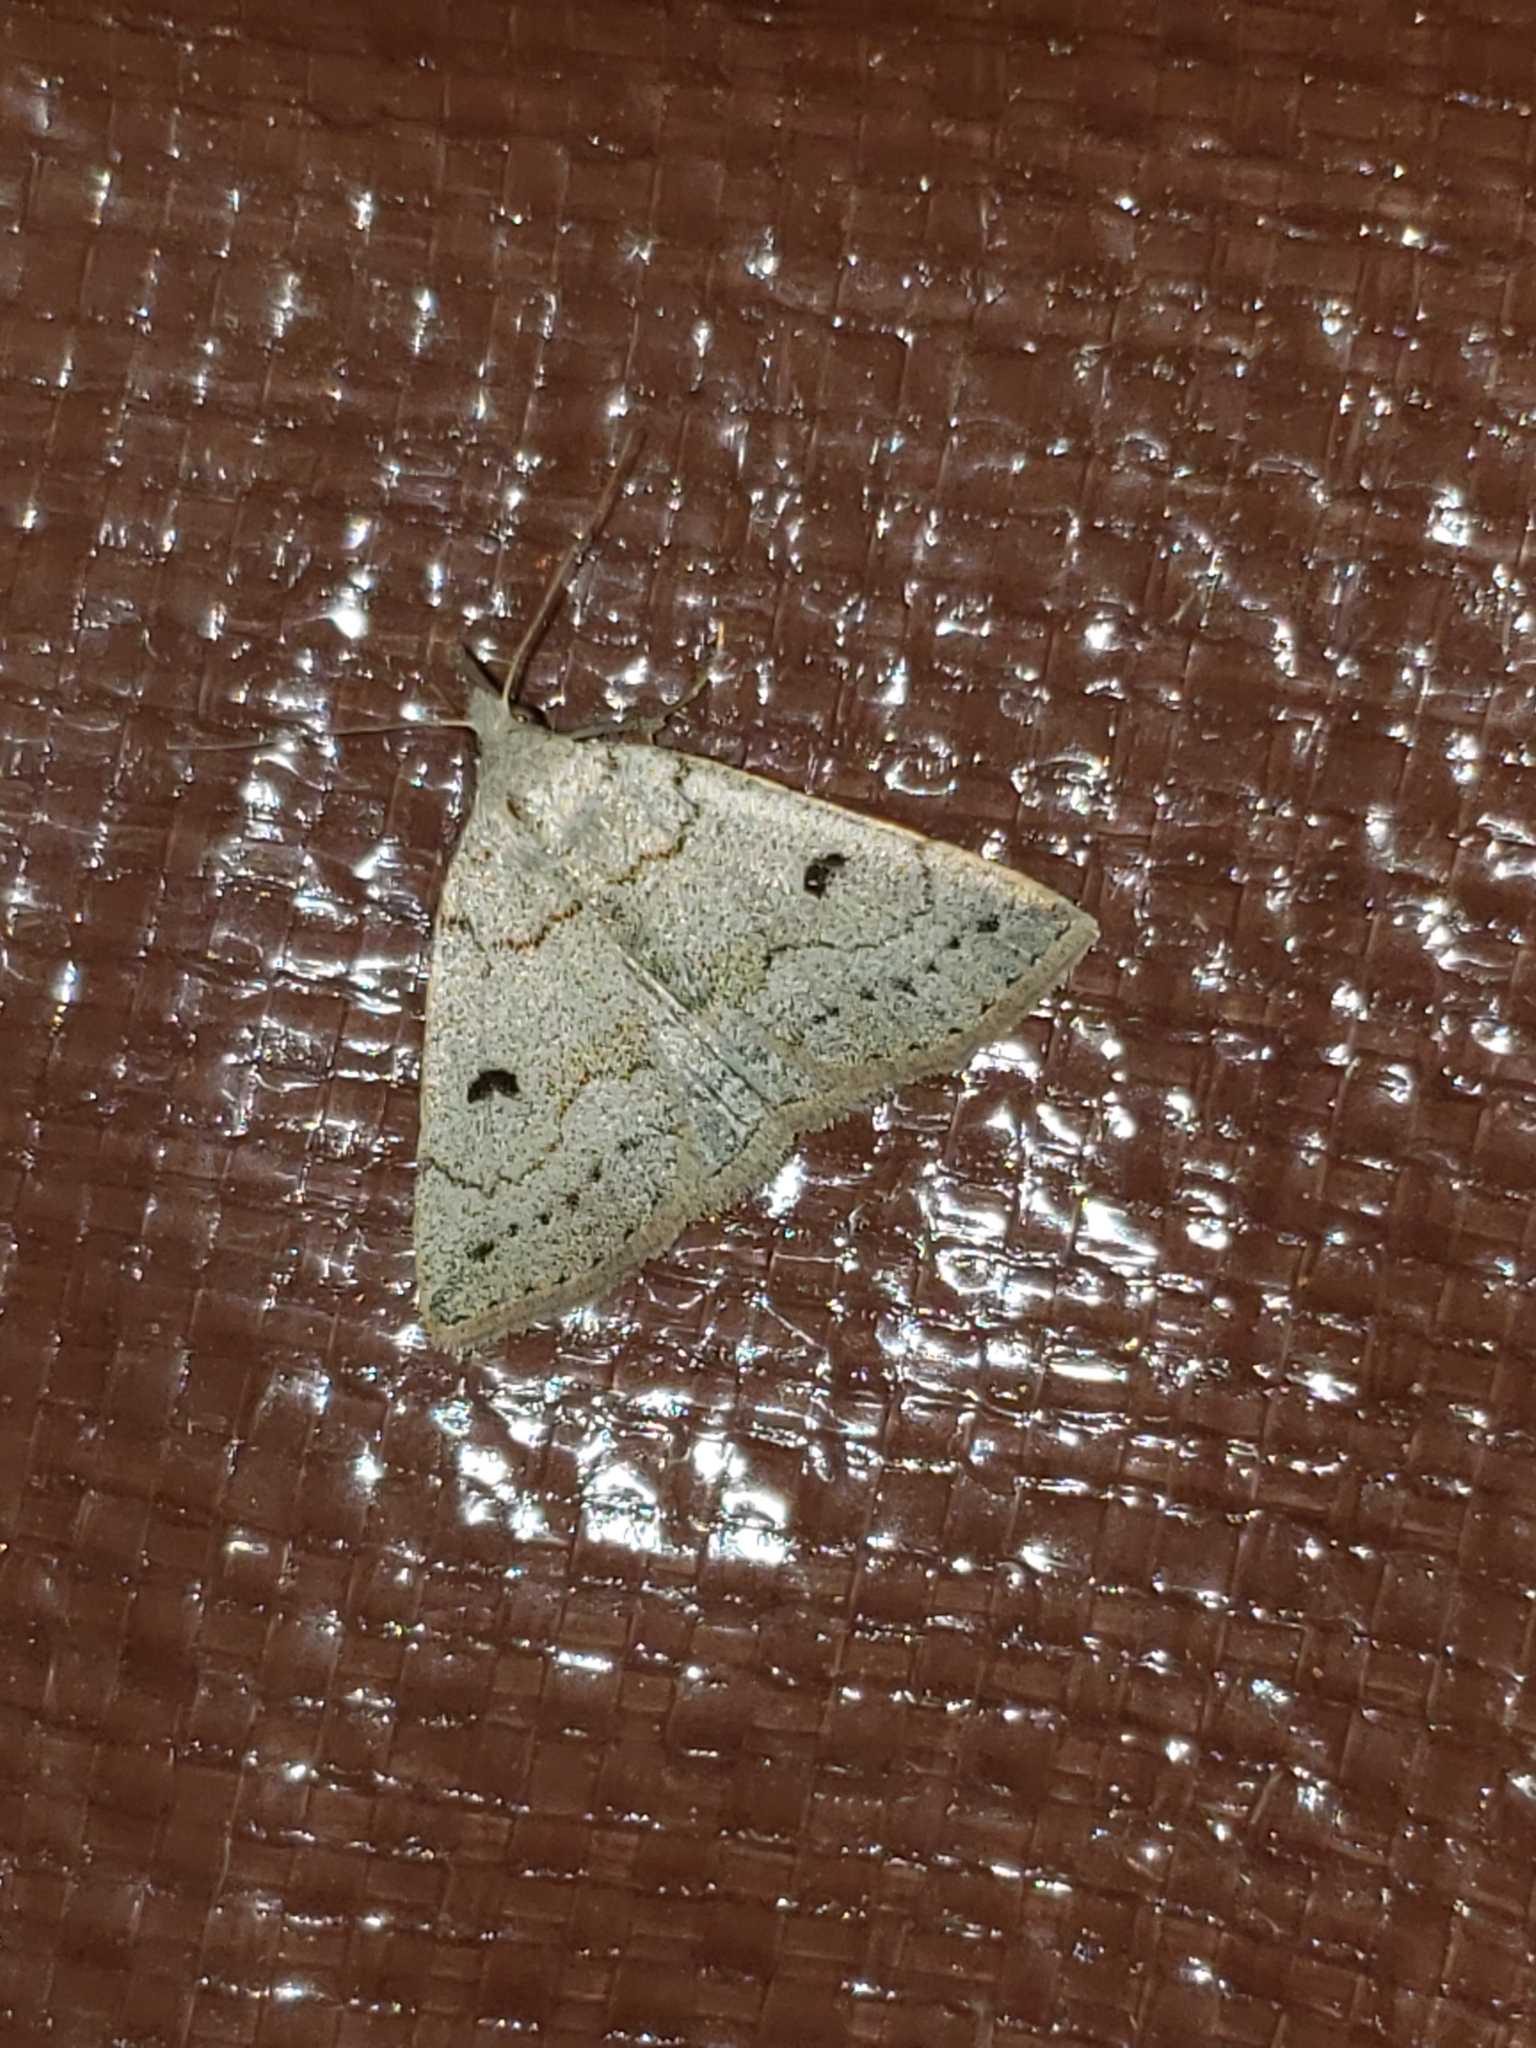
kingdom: Animalia
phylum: Arthropoda
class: Insecta
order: Lepidoptera
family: Erebidae
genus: Macrochilo
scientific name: Macrochilo morbidalis
